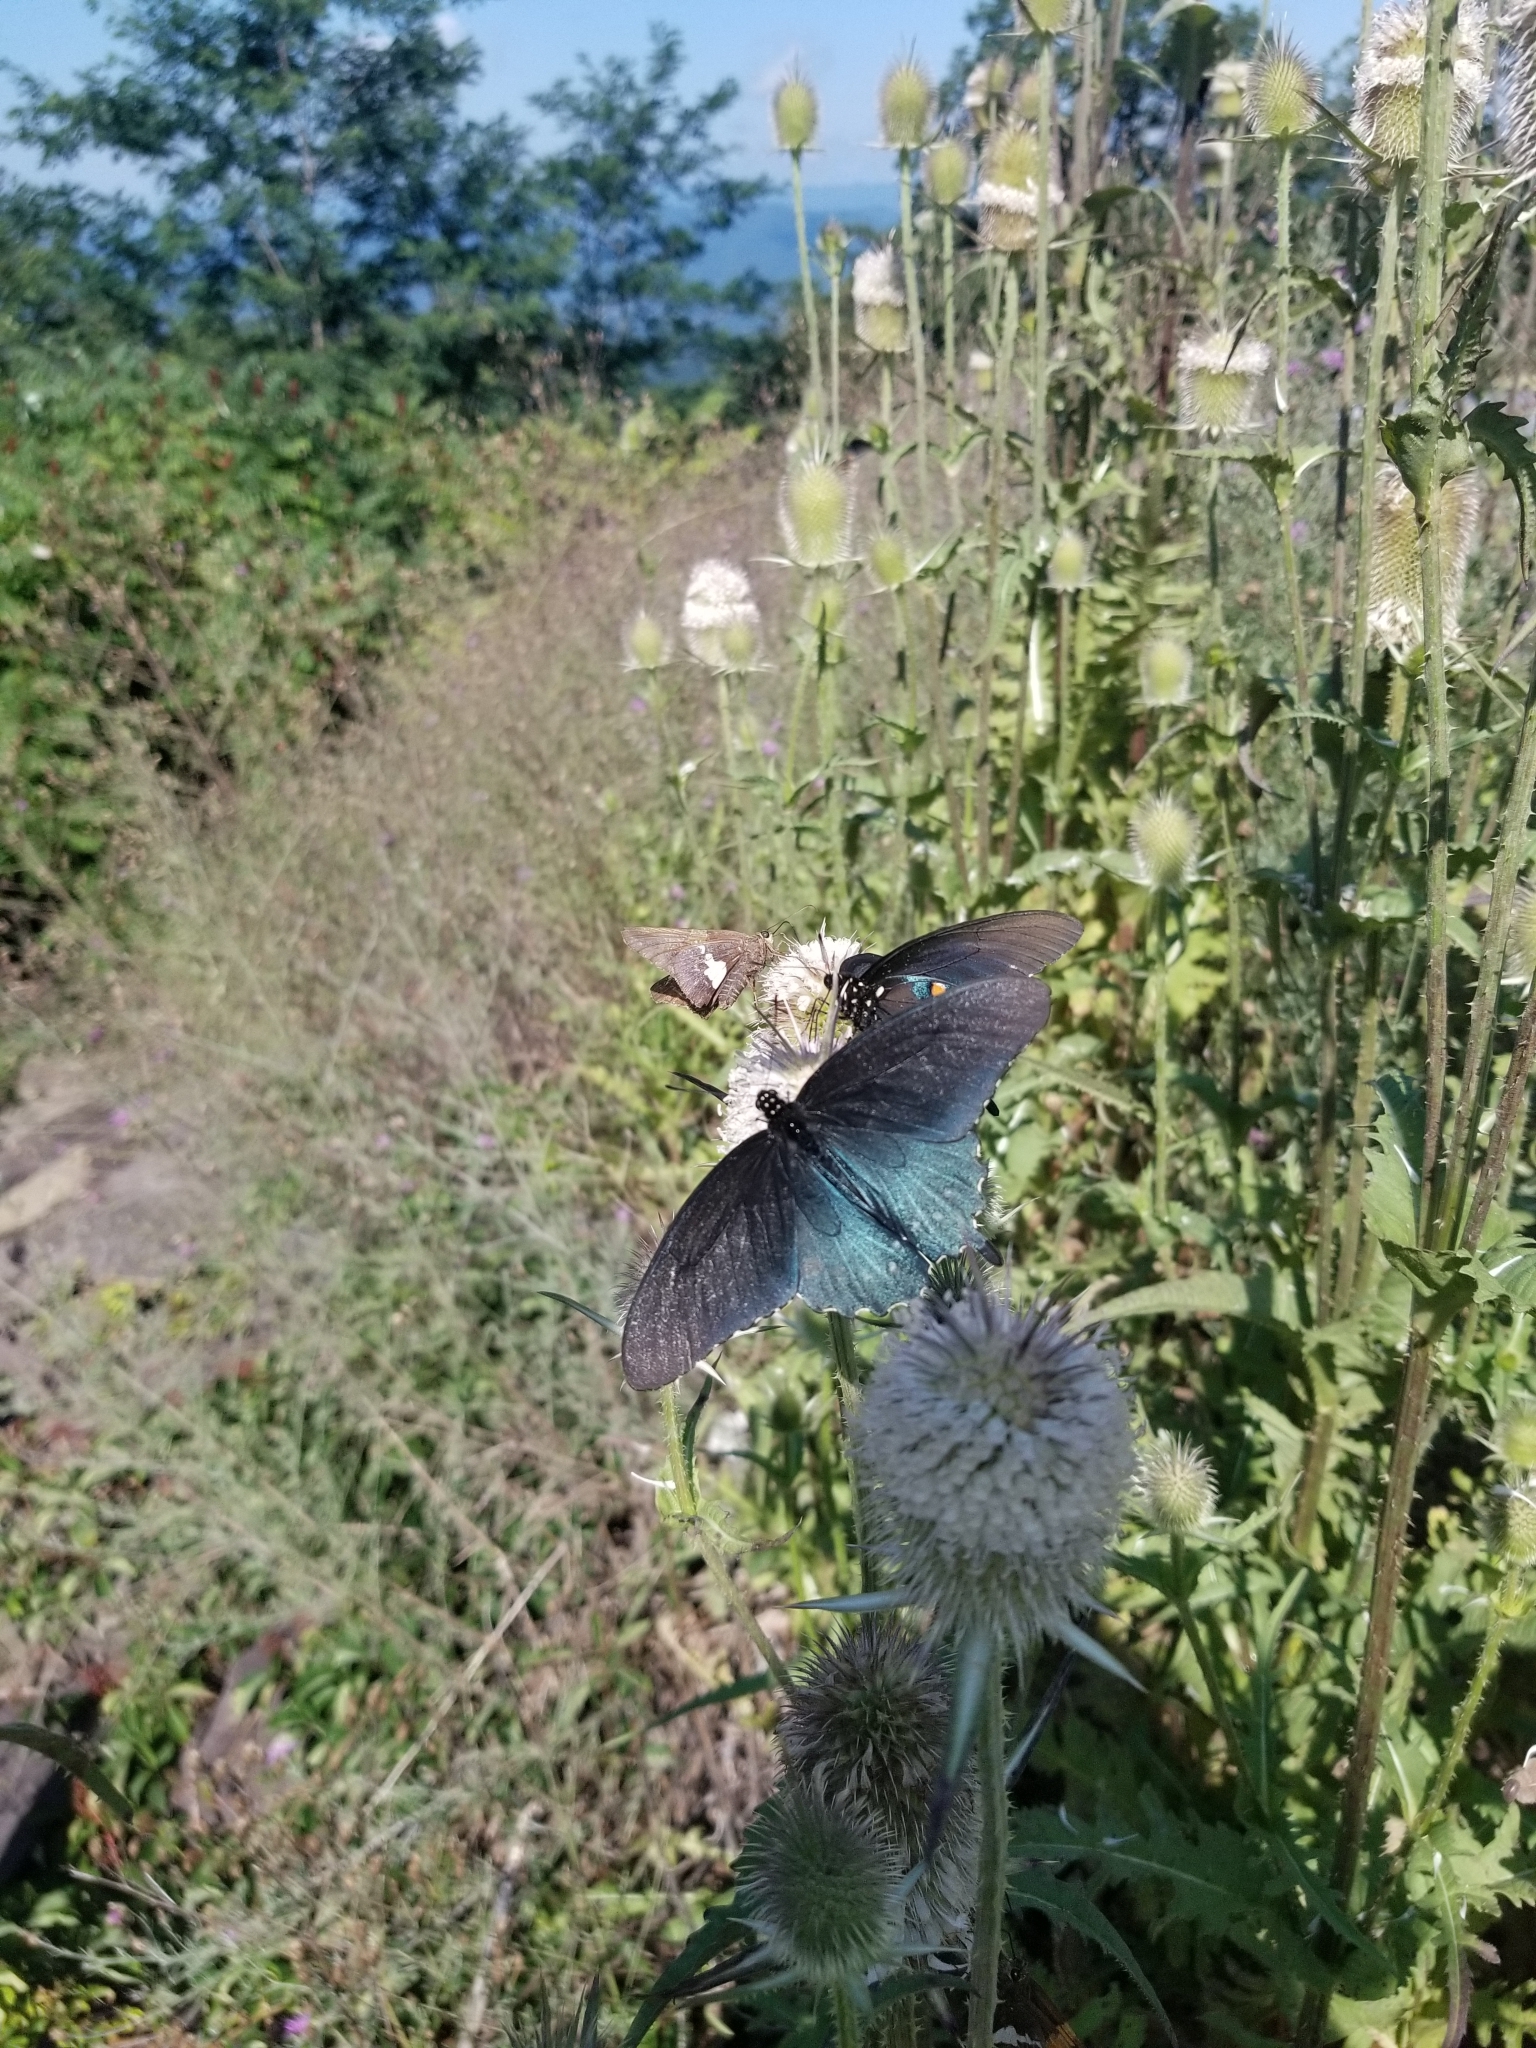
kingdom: Animalia
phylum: Arthropoda
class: Insecta
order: Lepidoptera
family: Hesperiidae
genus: Epargyreus
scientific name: Epargyreus clarus
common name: Silver-spotted skipper
